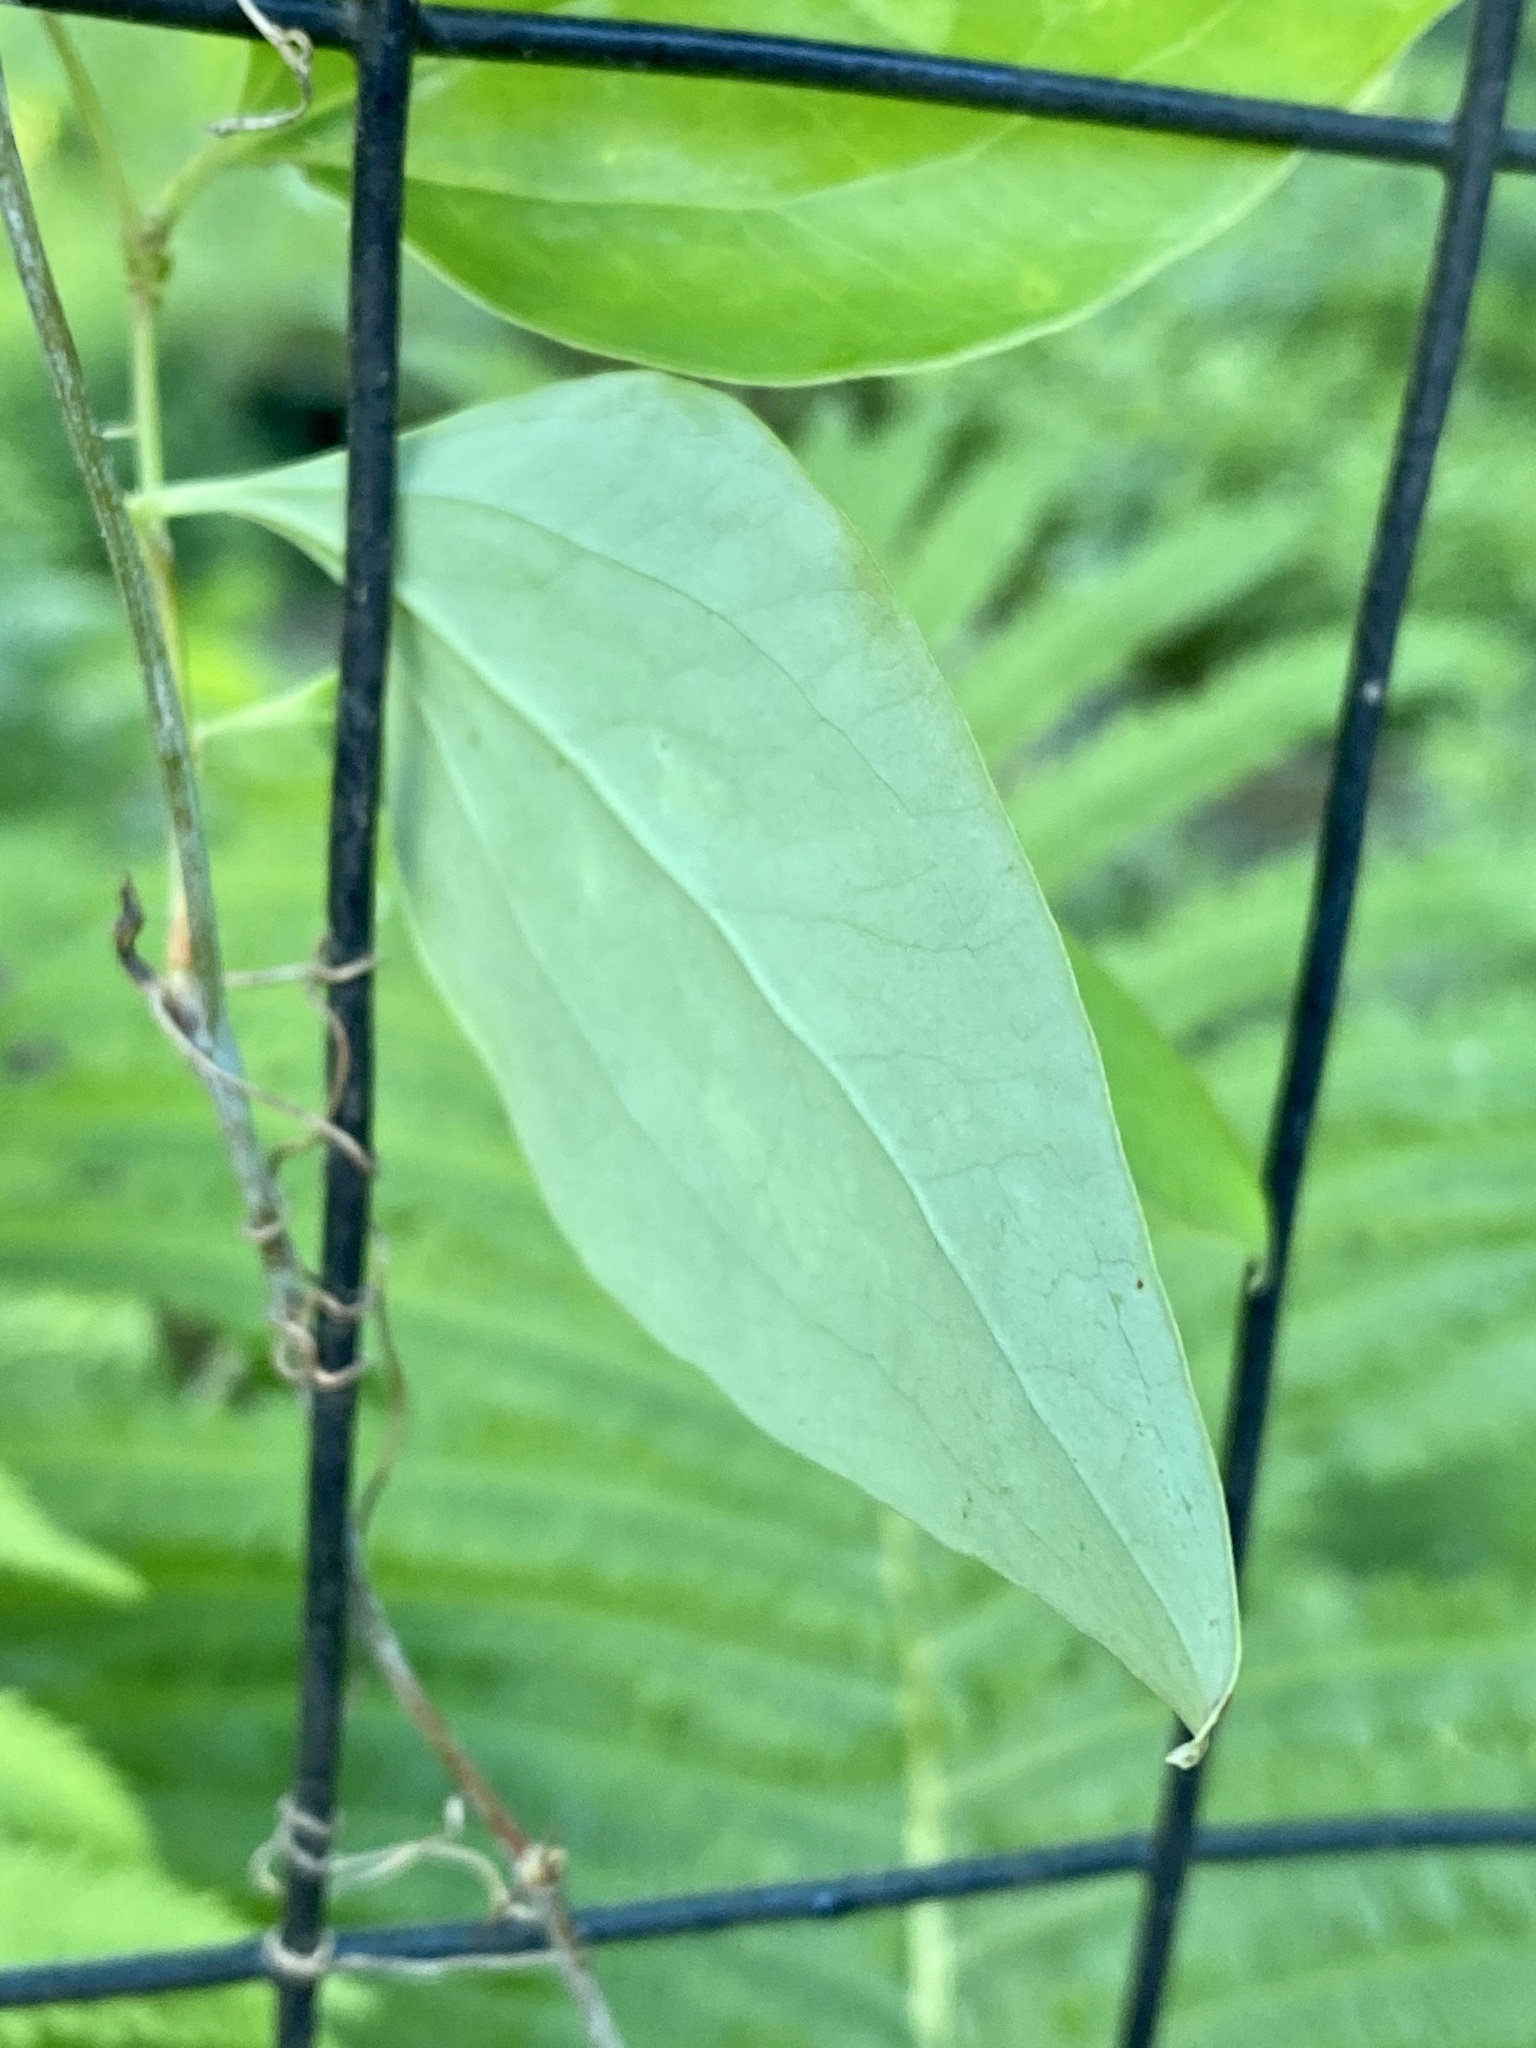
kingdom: Plantae
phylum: Tracheophyta
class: Liliopsida
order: Liliales
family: Smilacaceae
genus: Smilax
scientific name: Smilax glauca
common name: Cat greenbrier
